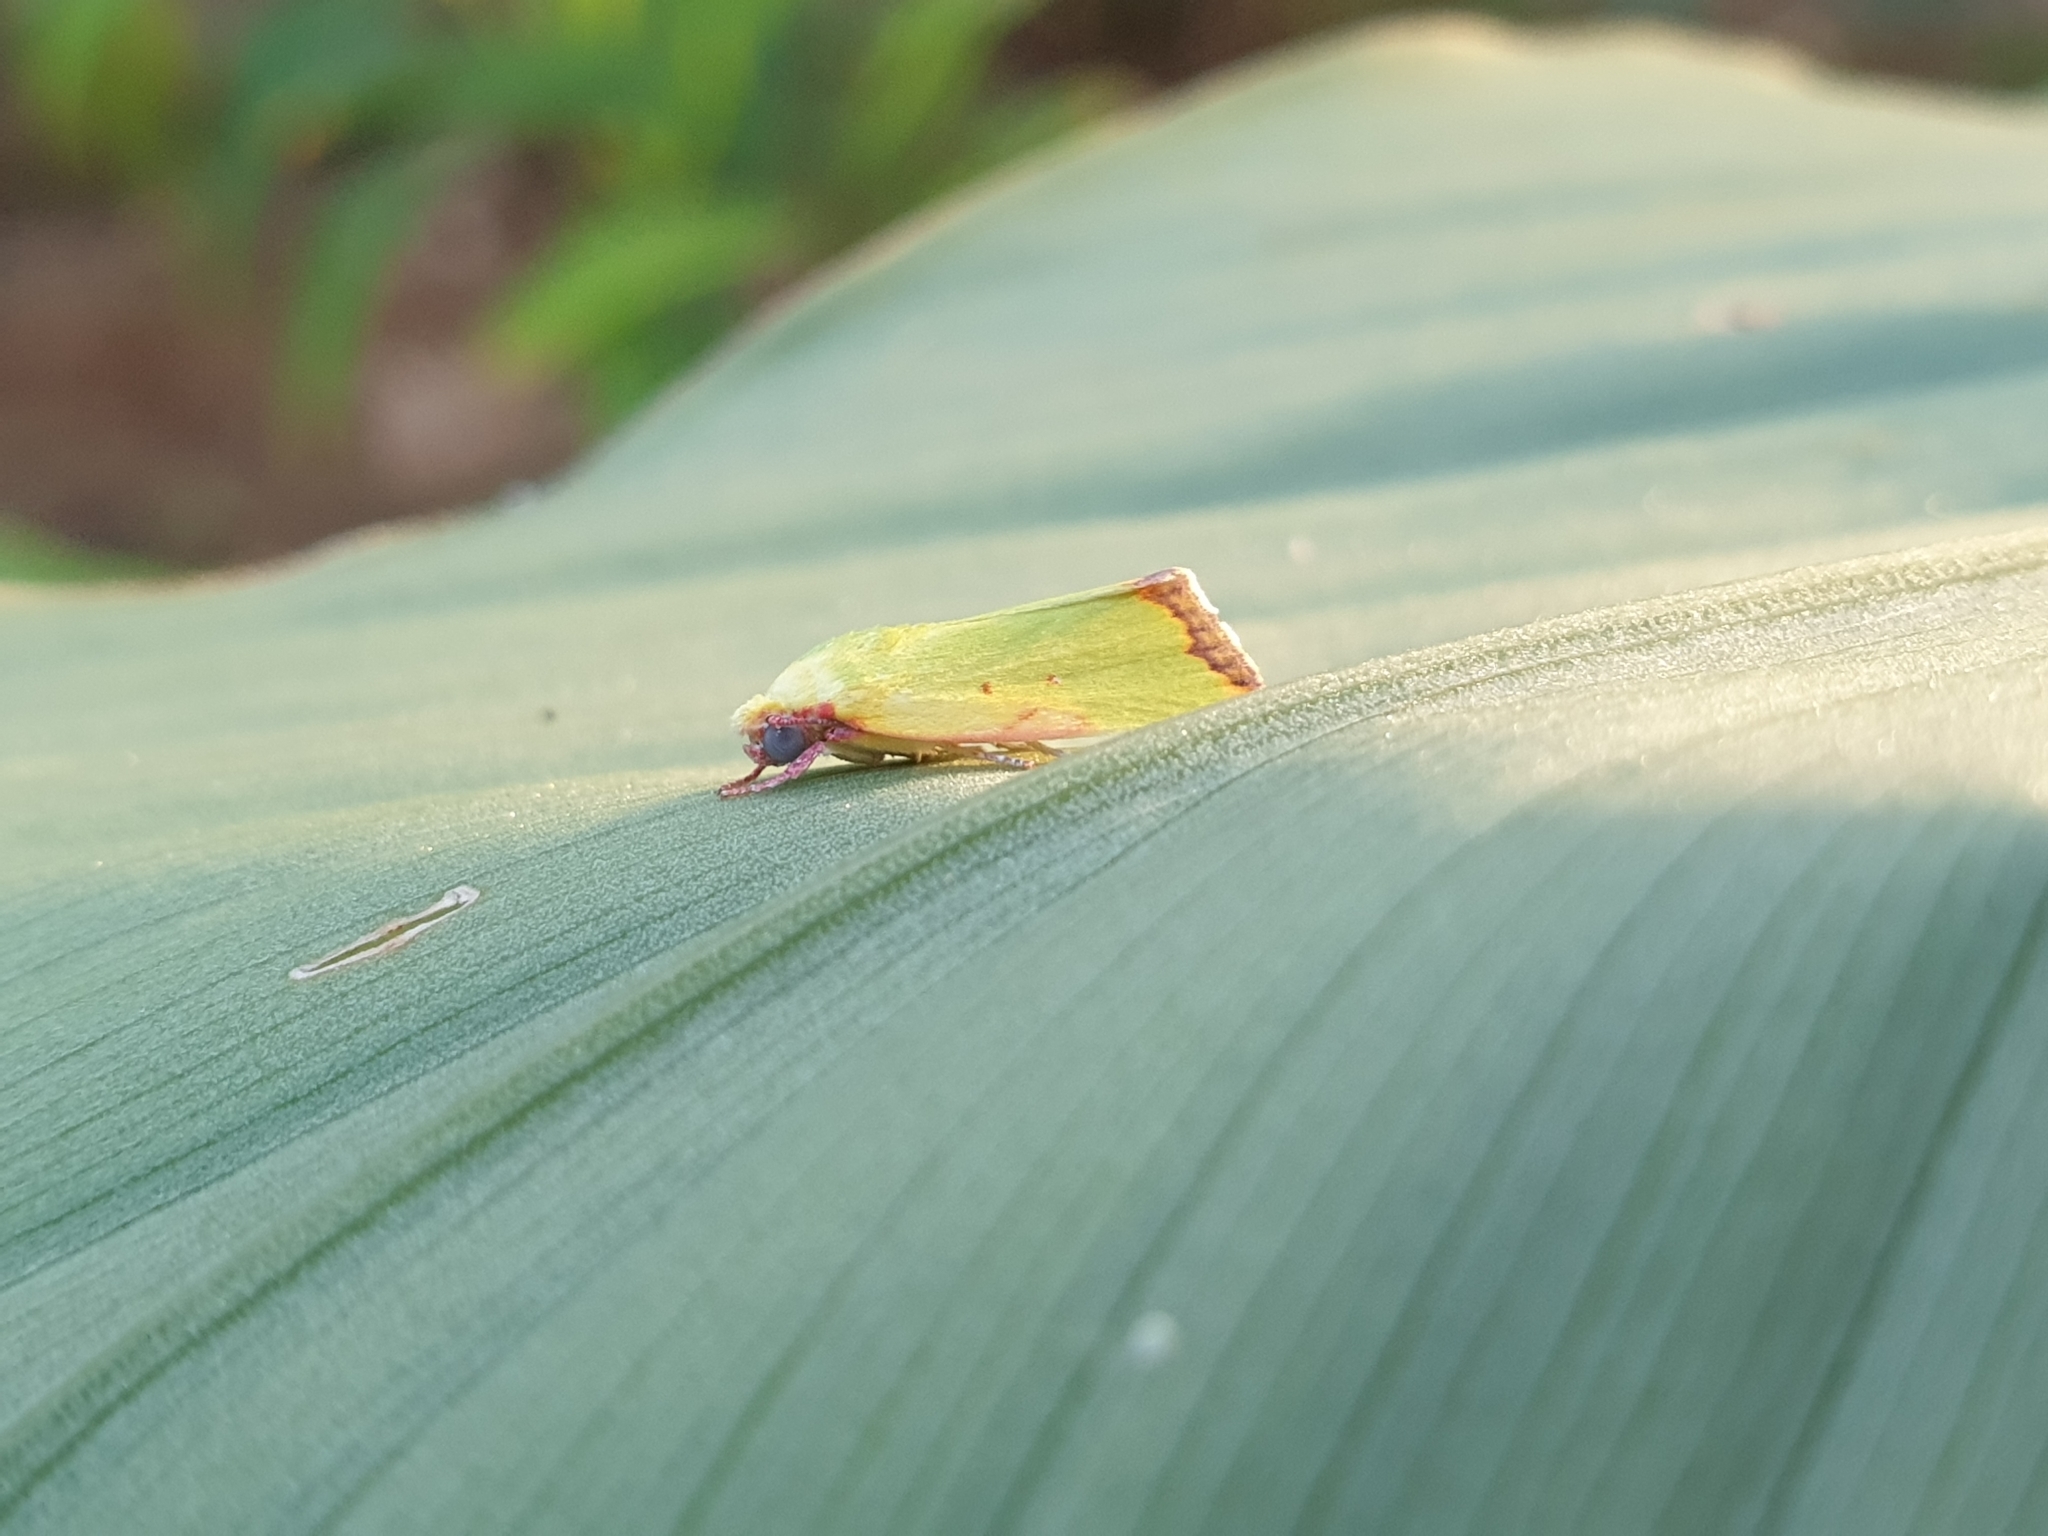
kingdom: Animalia
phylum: Arthropoda
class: Insecta
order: Lepidoptera
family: Nolidae
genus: Earias
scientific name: Earias cupreoviridis
